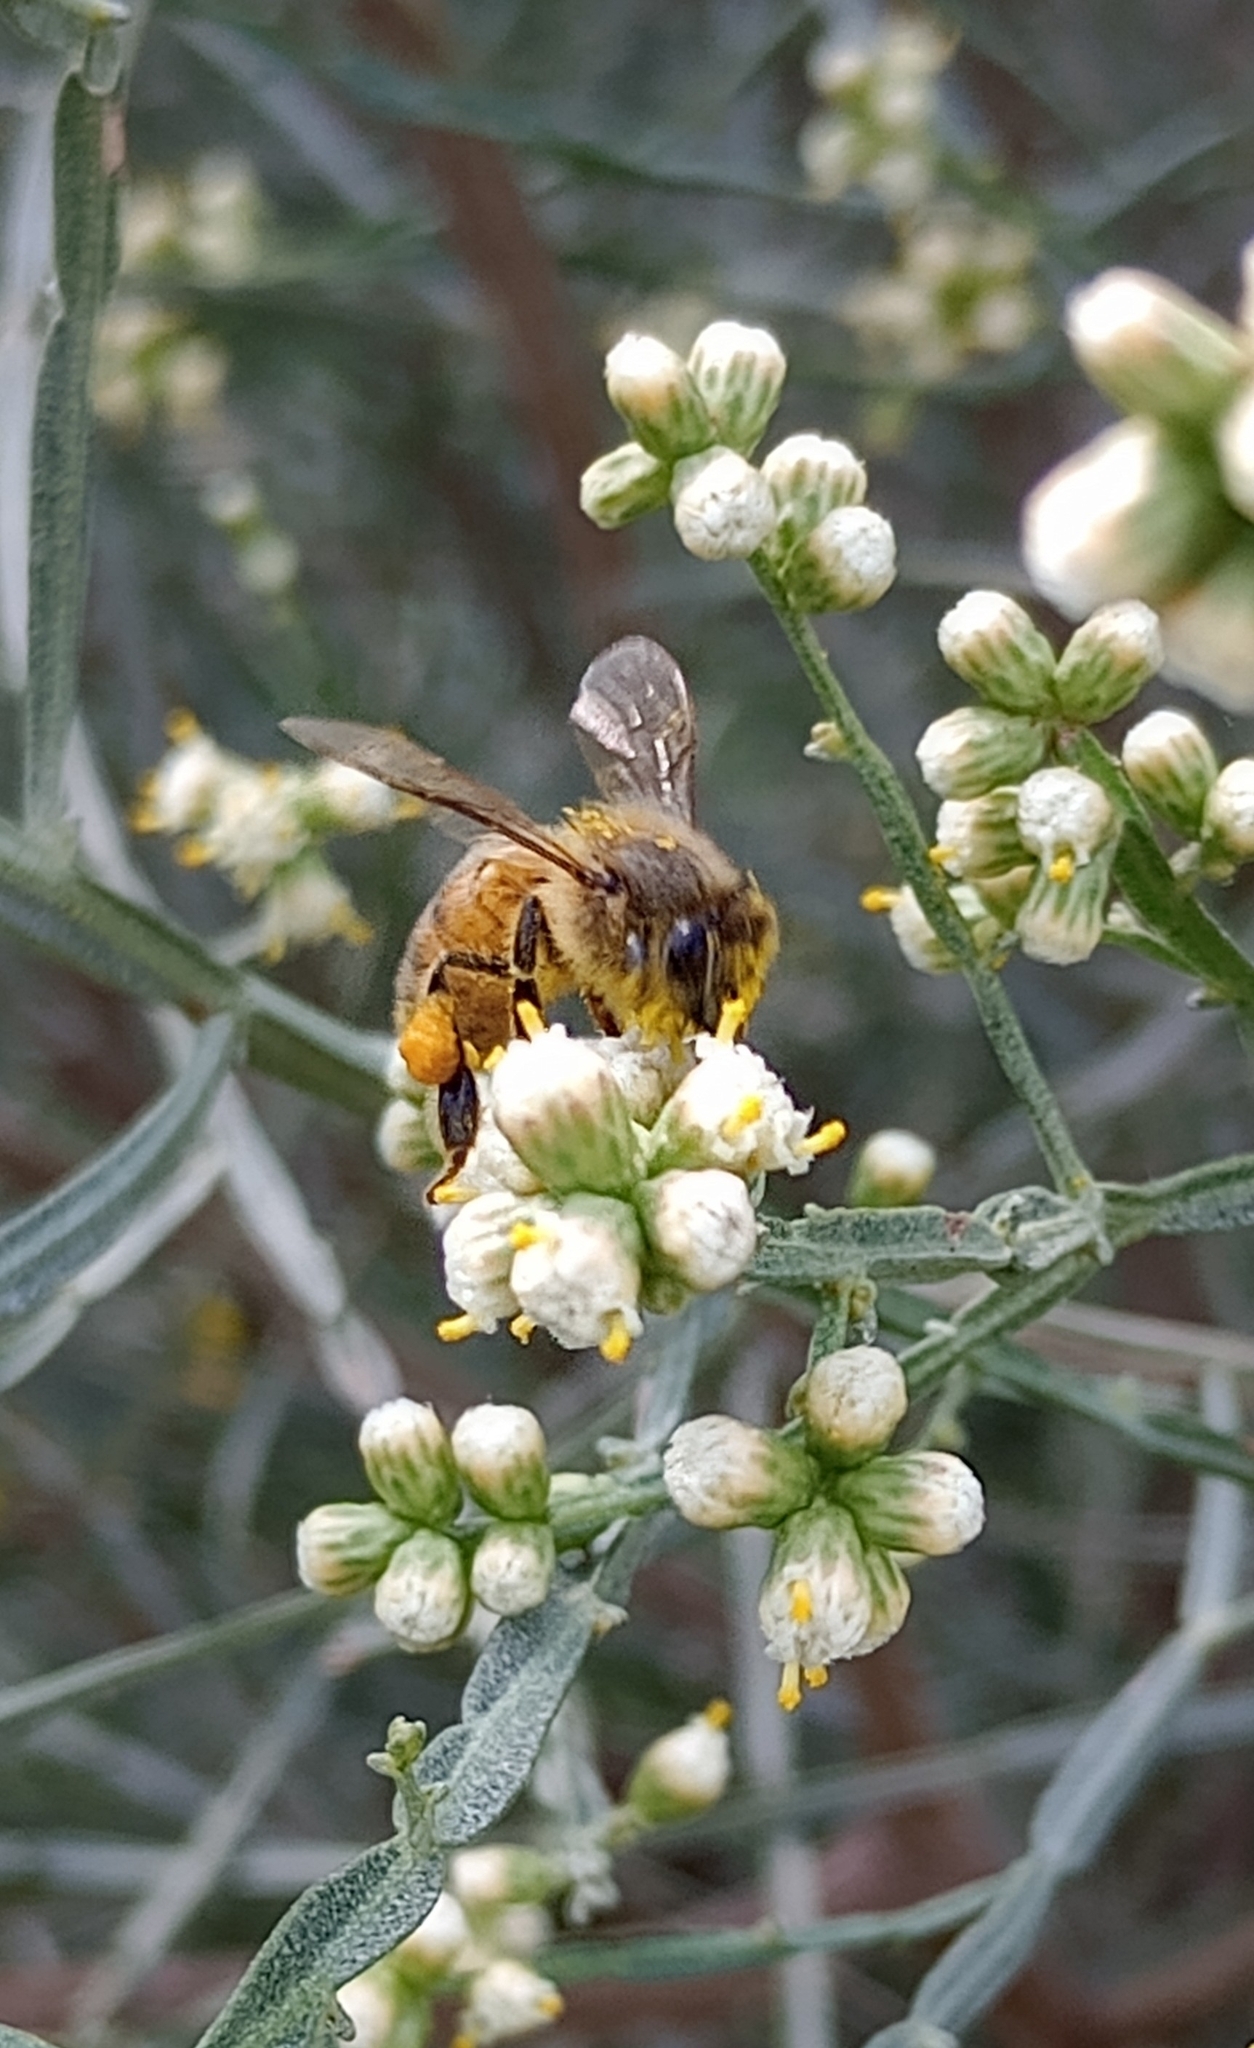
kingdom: Animalia
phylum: Arthropoda
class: Insecta
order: Hymenoptera
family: Apidae
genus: Apis
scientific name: Apis mellifera
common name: Honey bee
